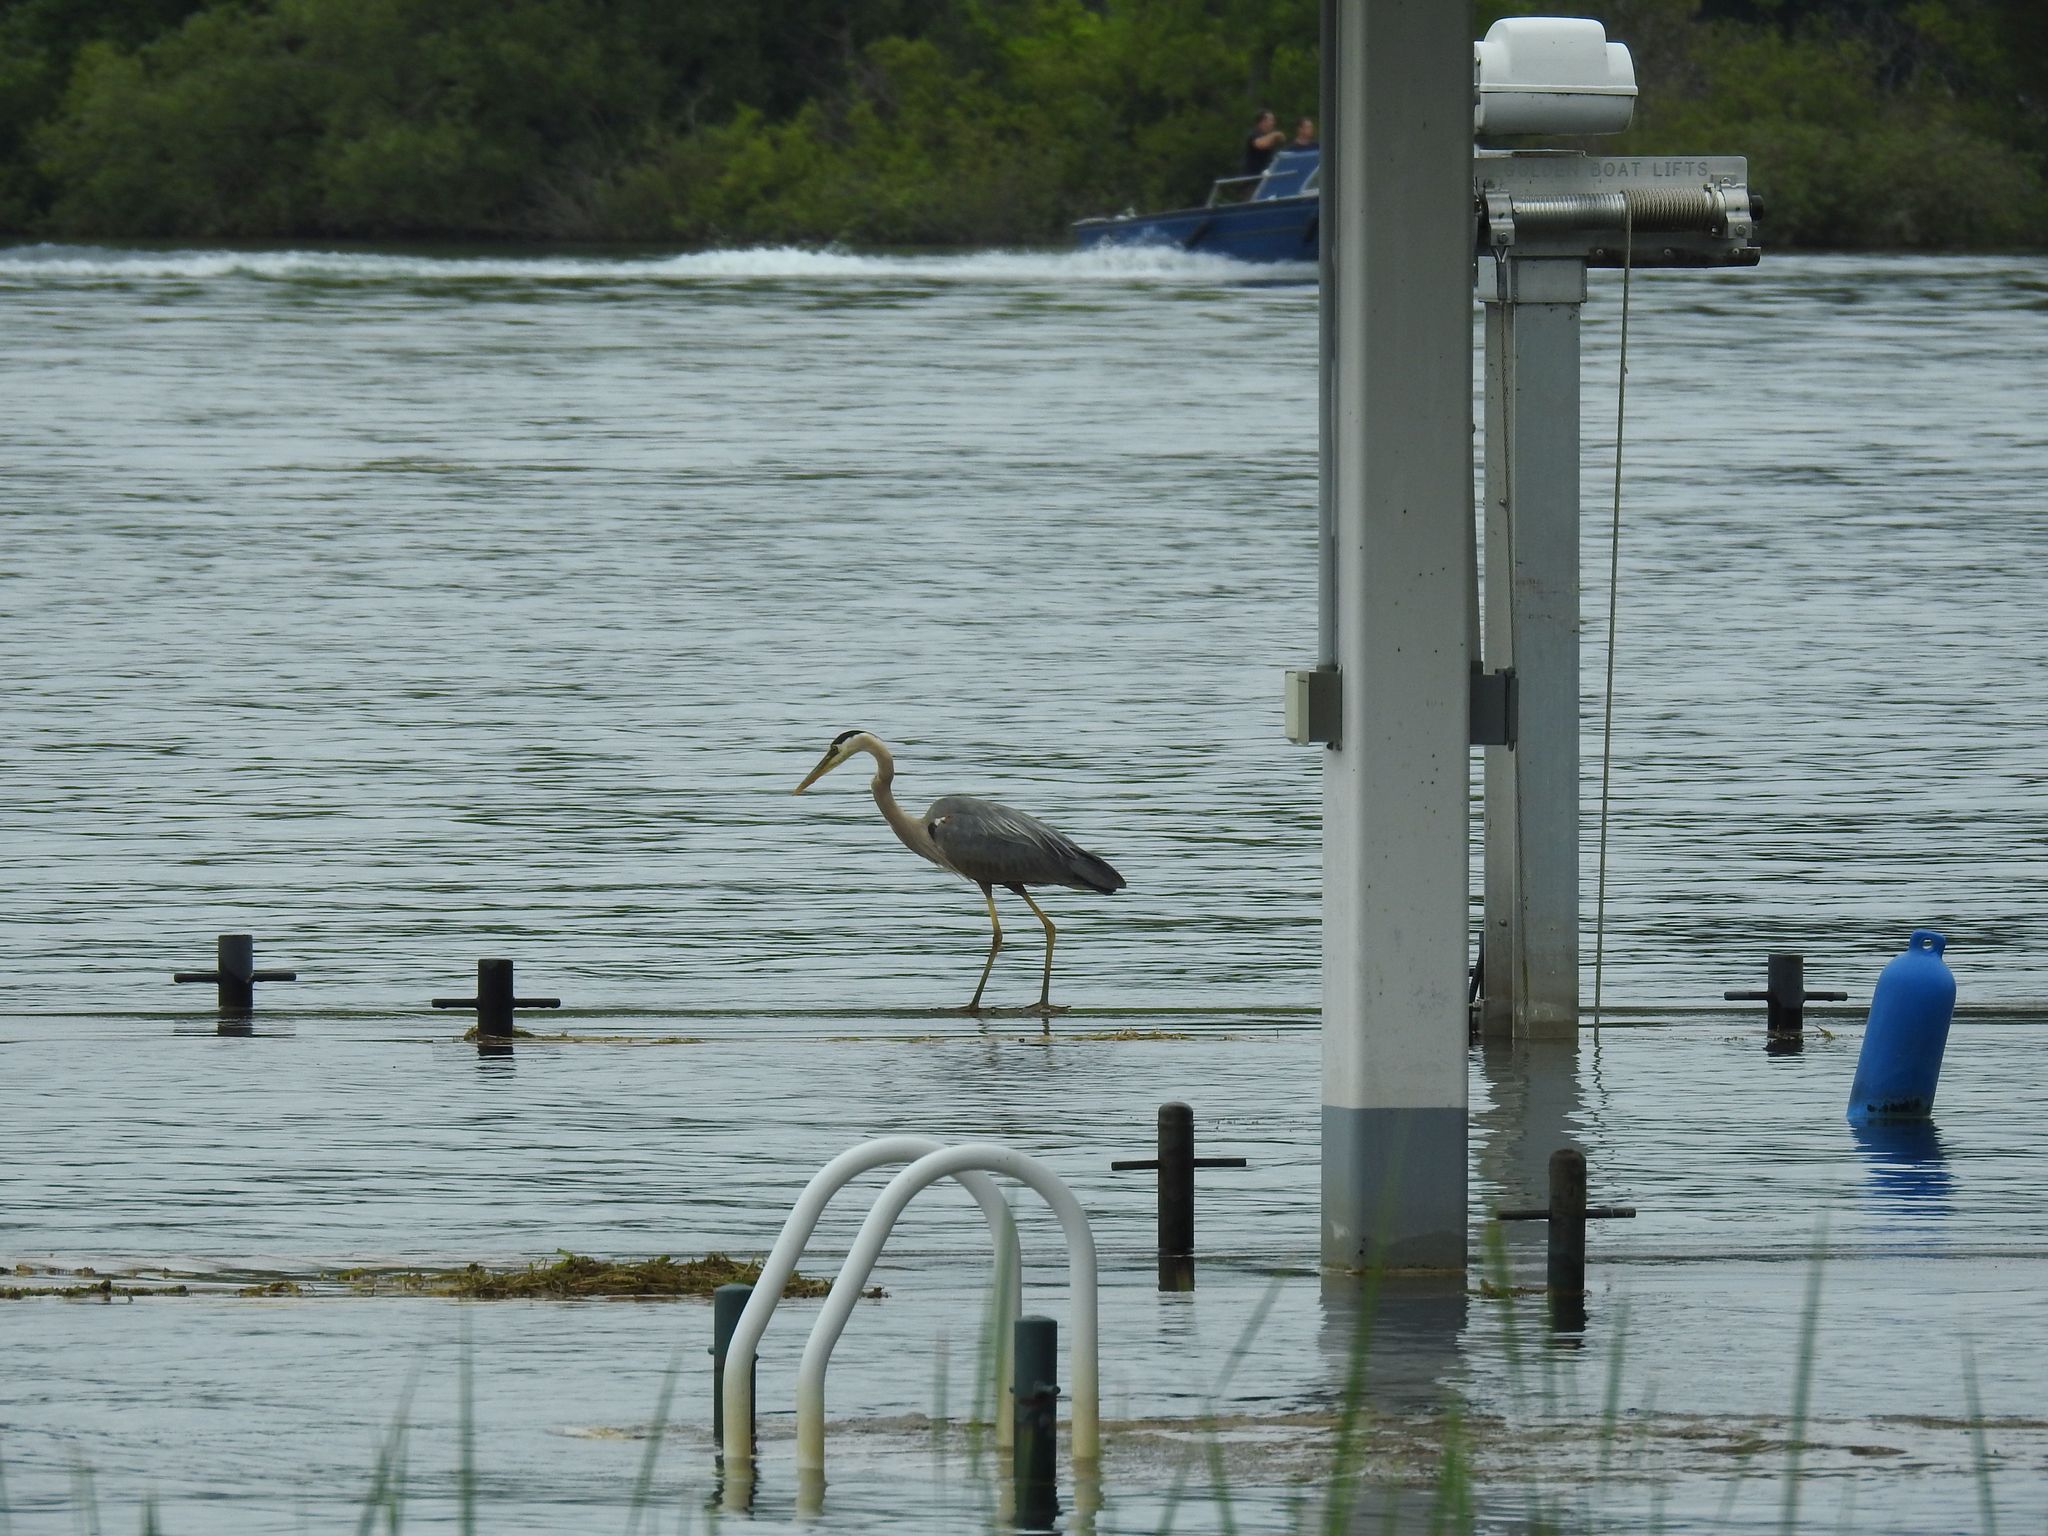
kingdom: Animalia
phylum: Chordata
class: Aves
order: Pelecaniformes
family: Ardeidae
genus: Ardea
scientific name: Ardea herodias
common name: Great blue heron
